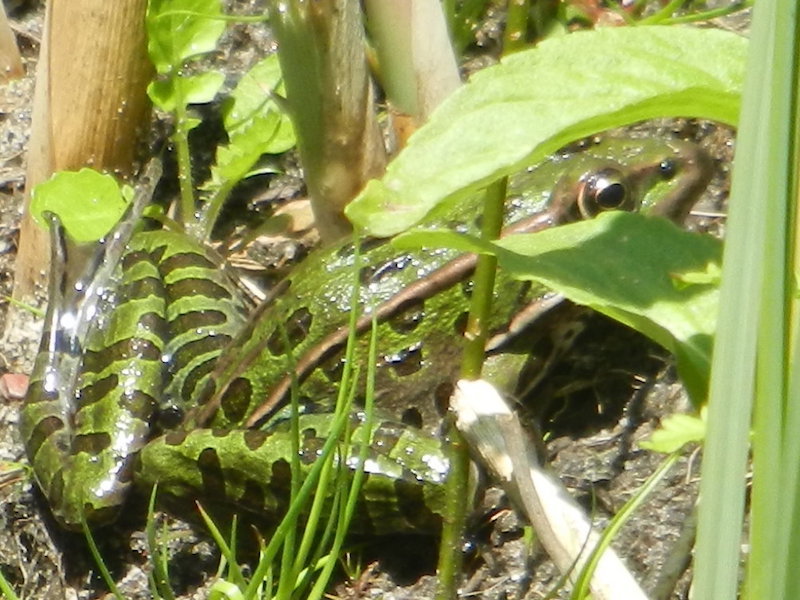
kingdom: Animalia
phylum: Chordata
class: Amphibia
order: Anura
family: Ranidae
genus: Lithobates
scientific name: Lithobates pipiens
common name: Northern leopard frog
